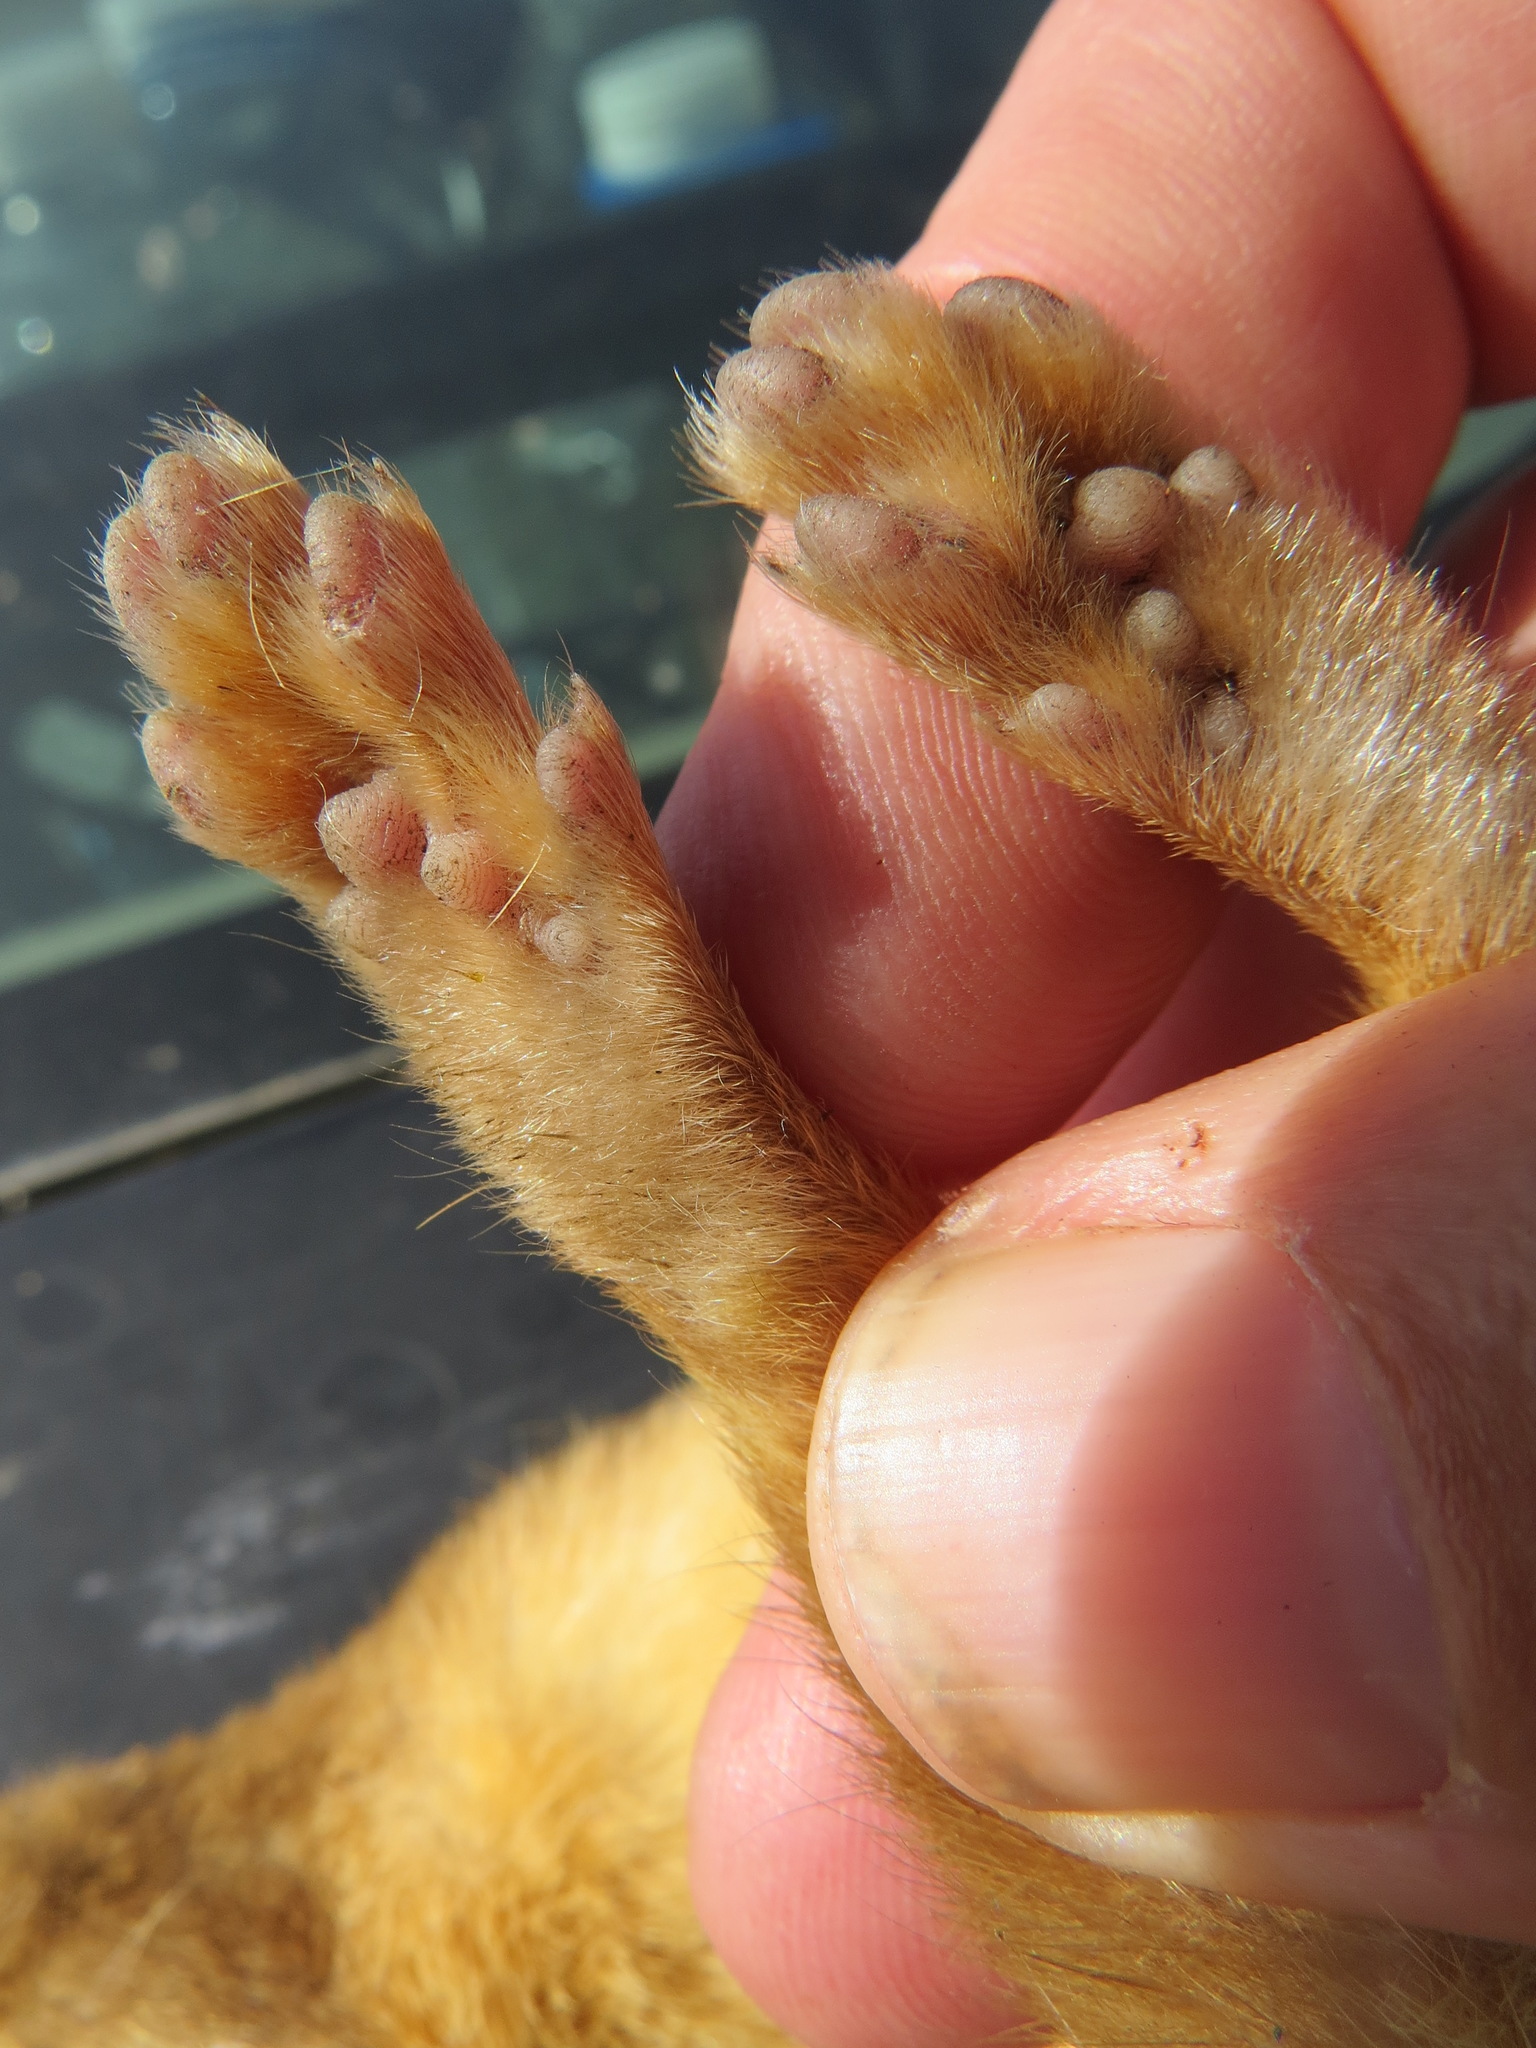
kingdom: Animalia
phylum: Chordata
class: Mammalia
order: Carnivora
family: Mustelidae
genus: Mustela
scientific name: Mustela
